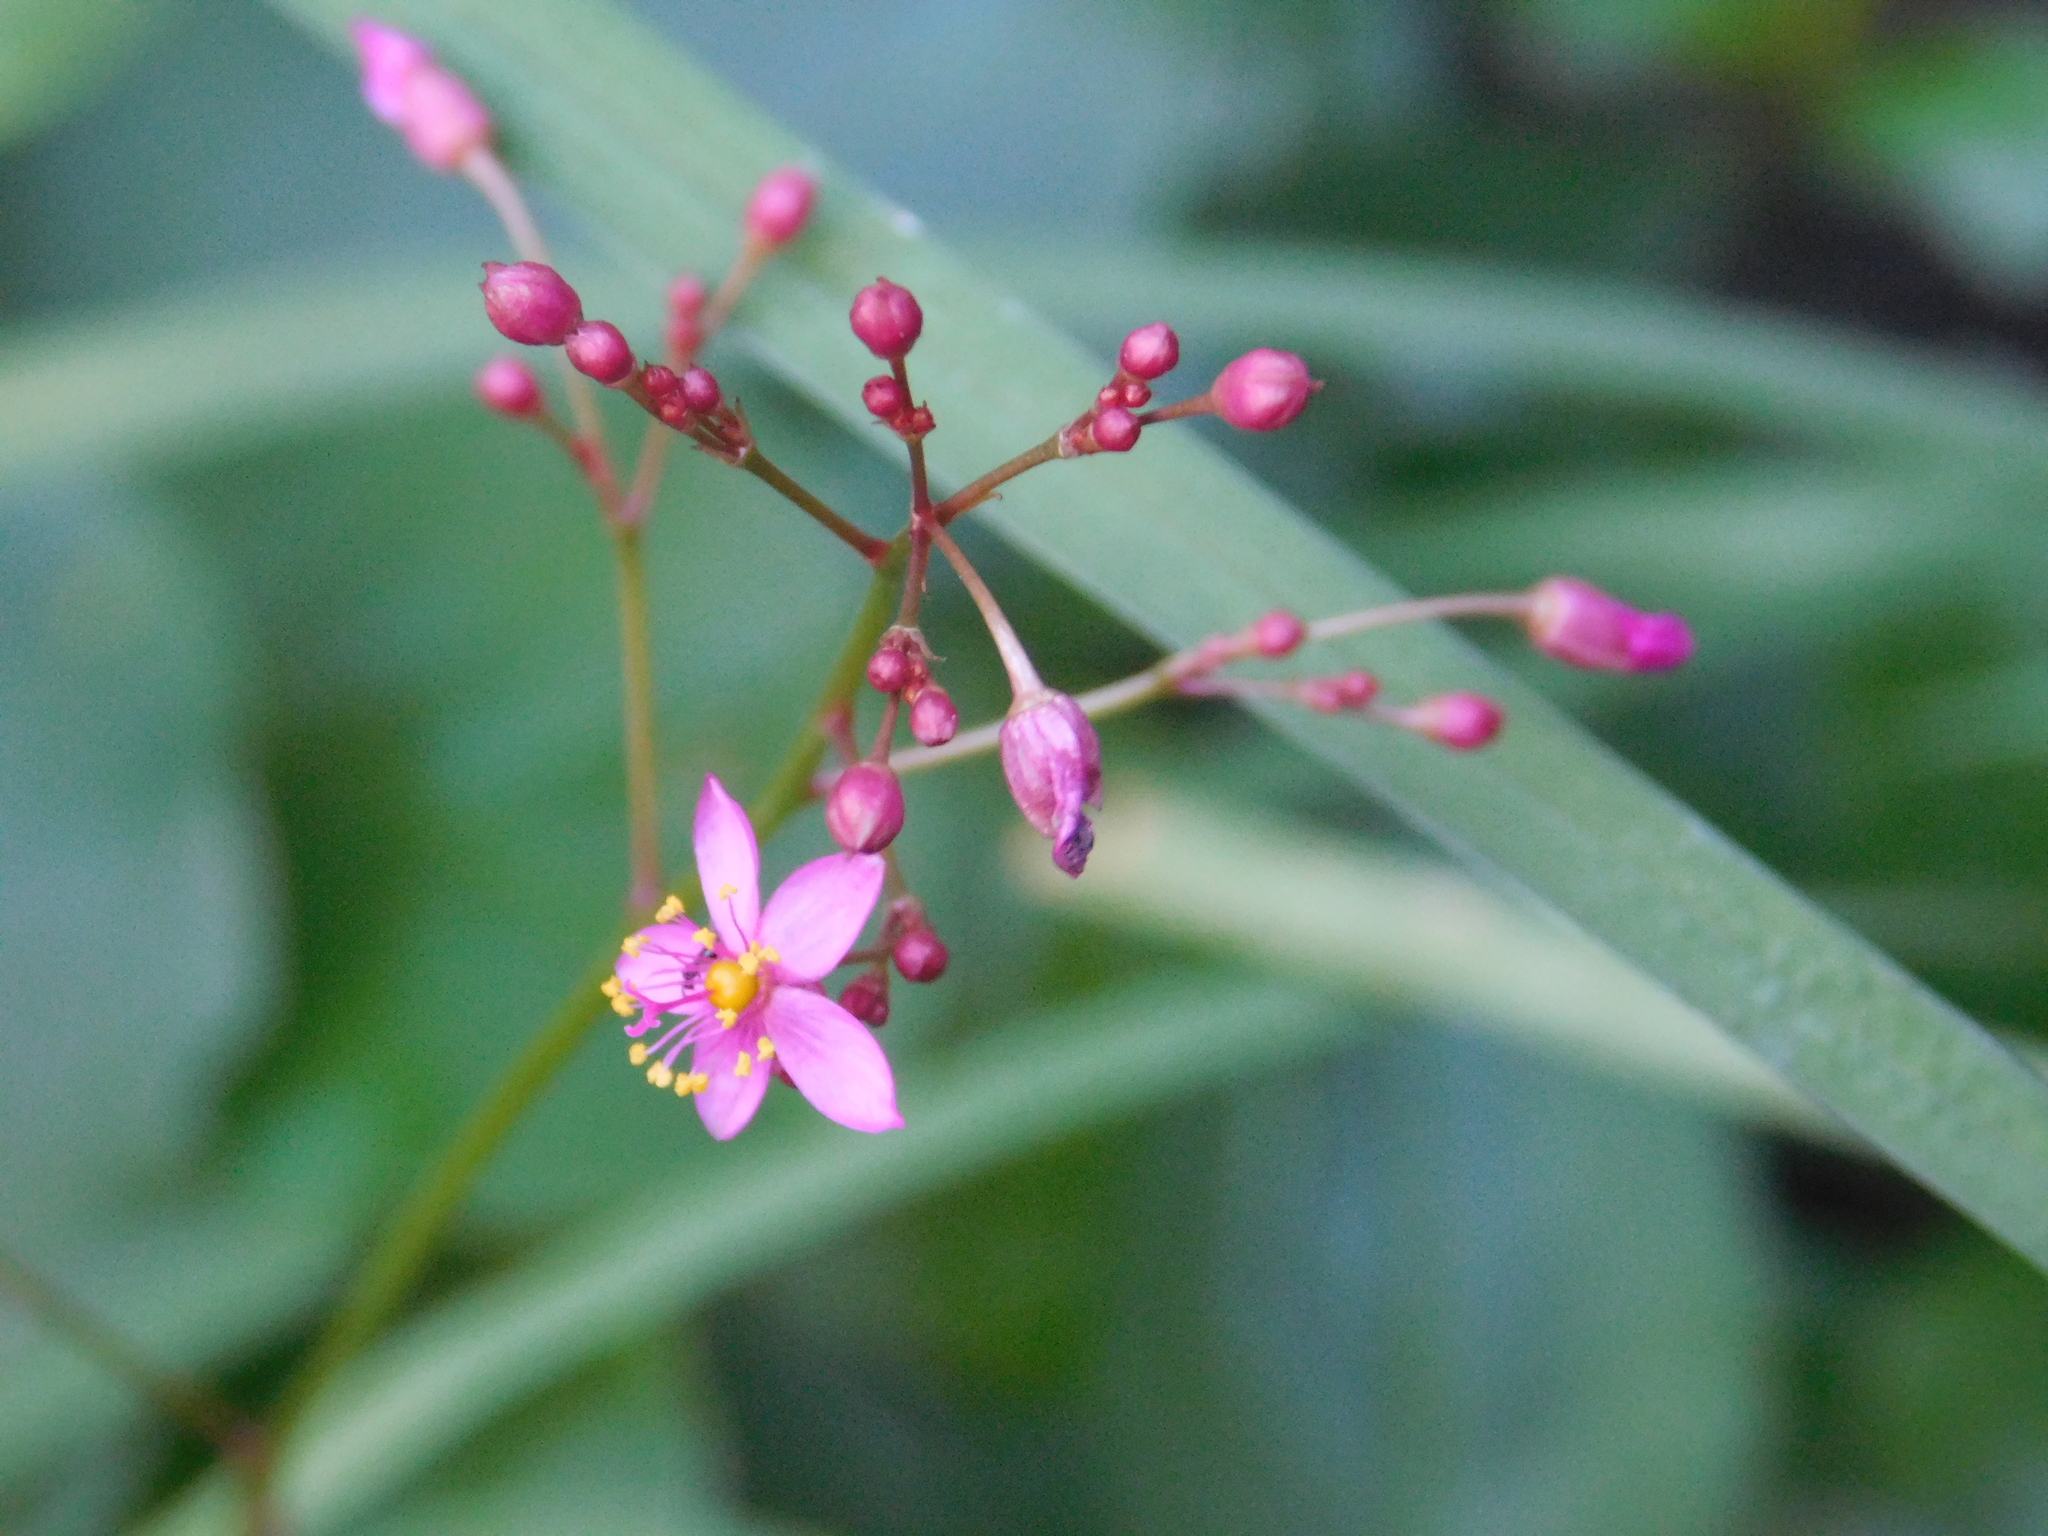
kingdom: Plantae
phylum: Tracheophyta
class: Magnoliopsida
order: Caryophyllales
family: Talinaceae
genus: Talinum
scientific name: Talinum paniculatum
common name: Jewels of opar
